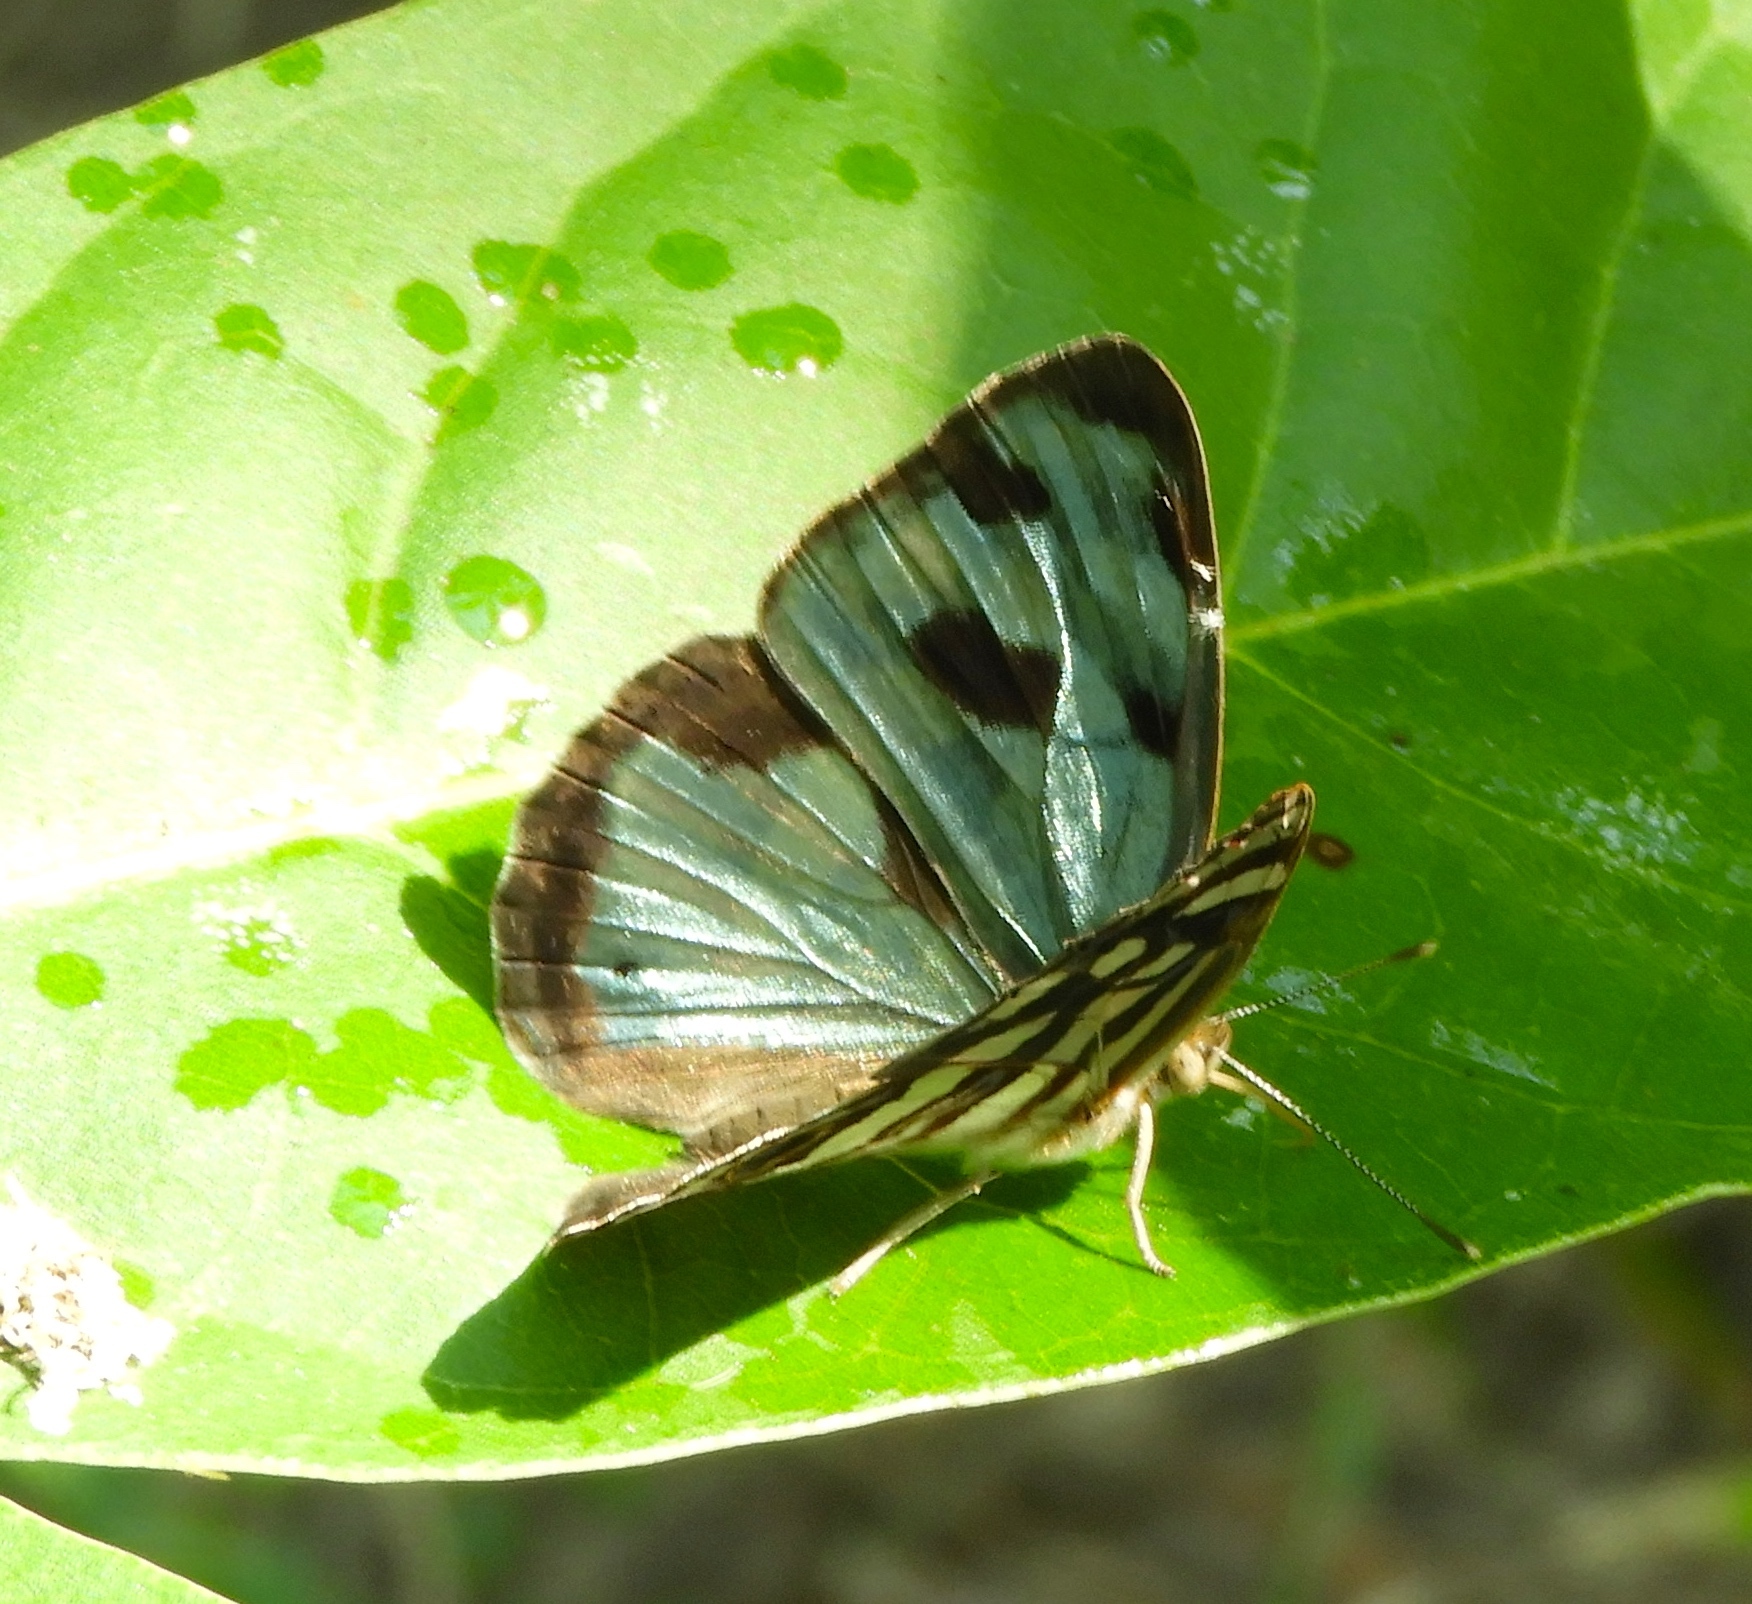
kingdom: Animalia
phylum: Arthropoda
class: Insecta
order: Lepidoptera
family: Nymphalidae
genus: Dynamine
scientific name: Dynamine mylitta
